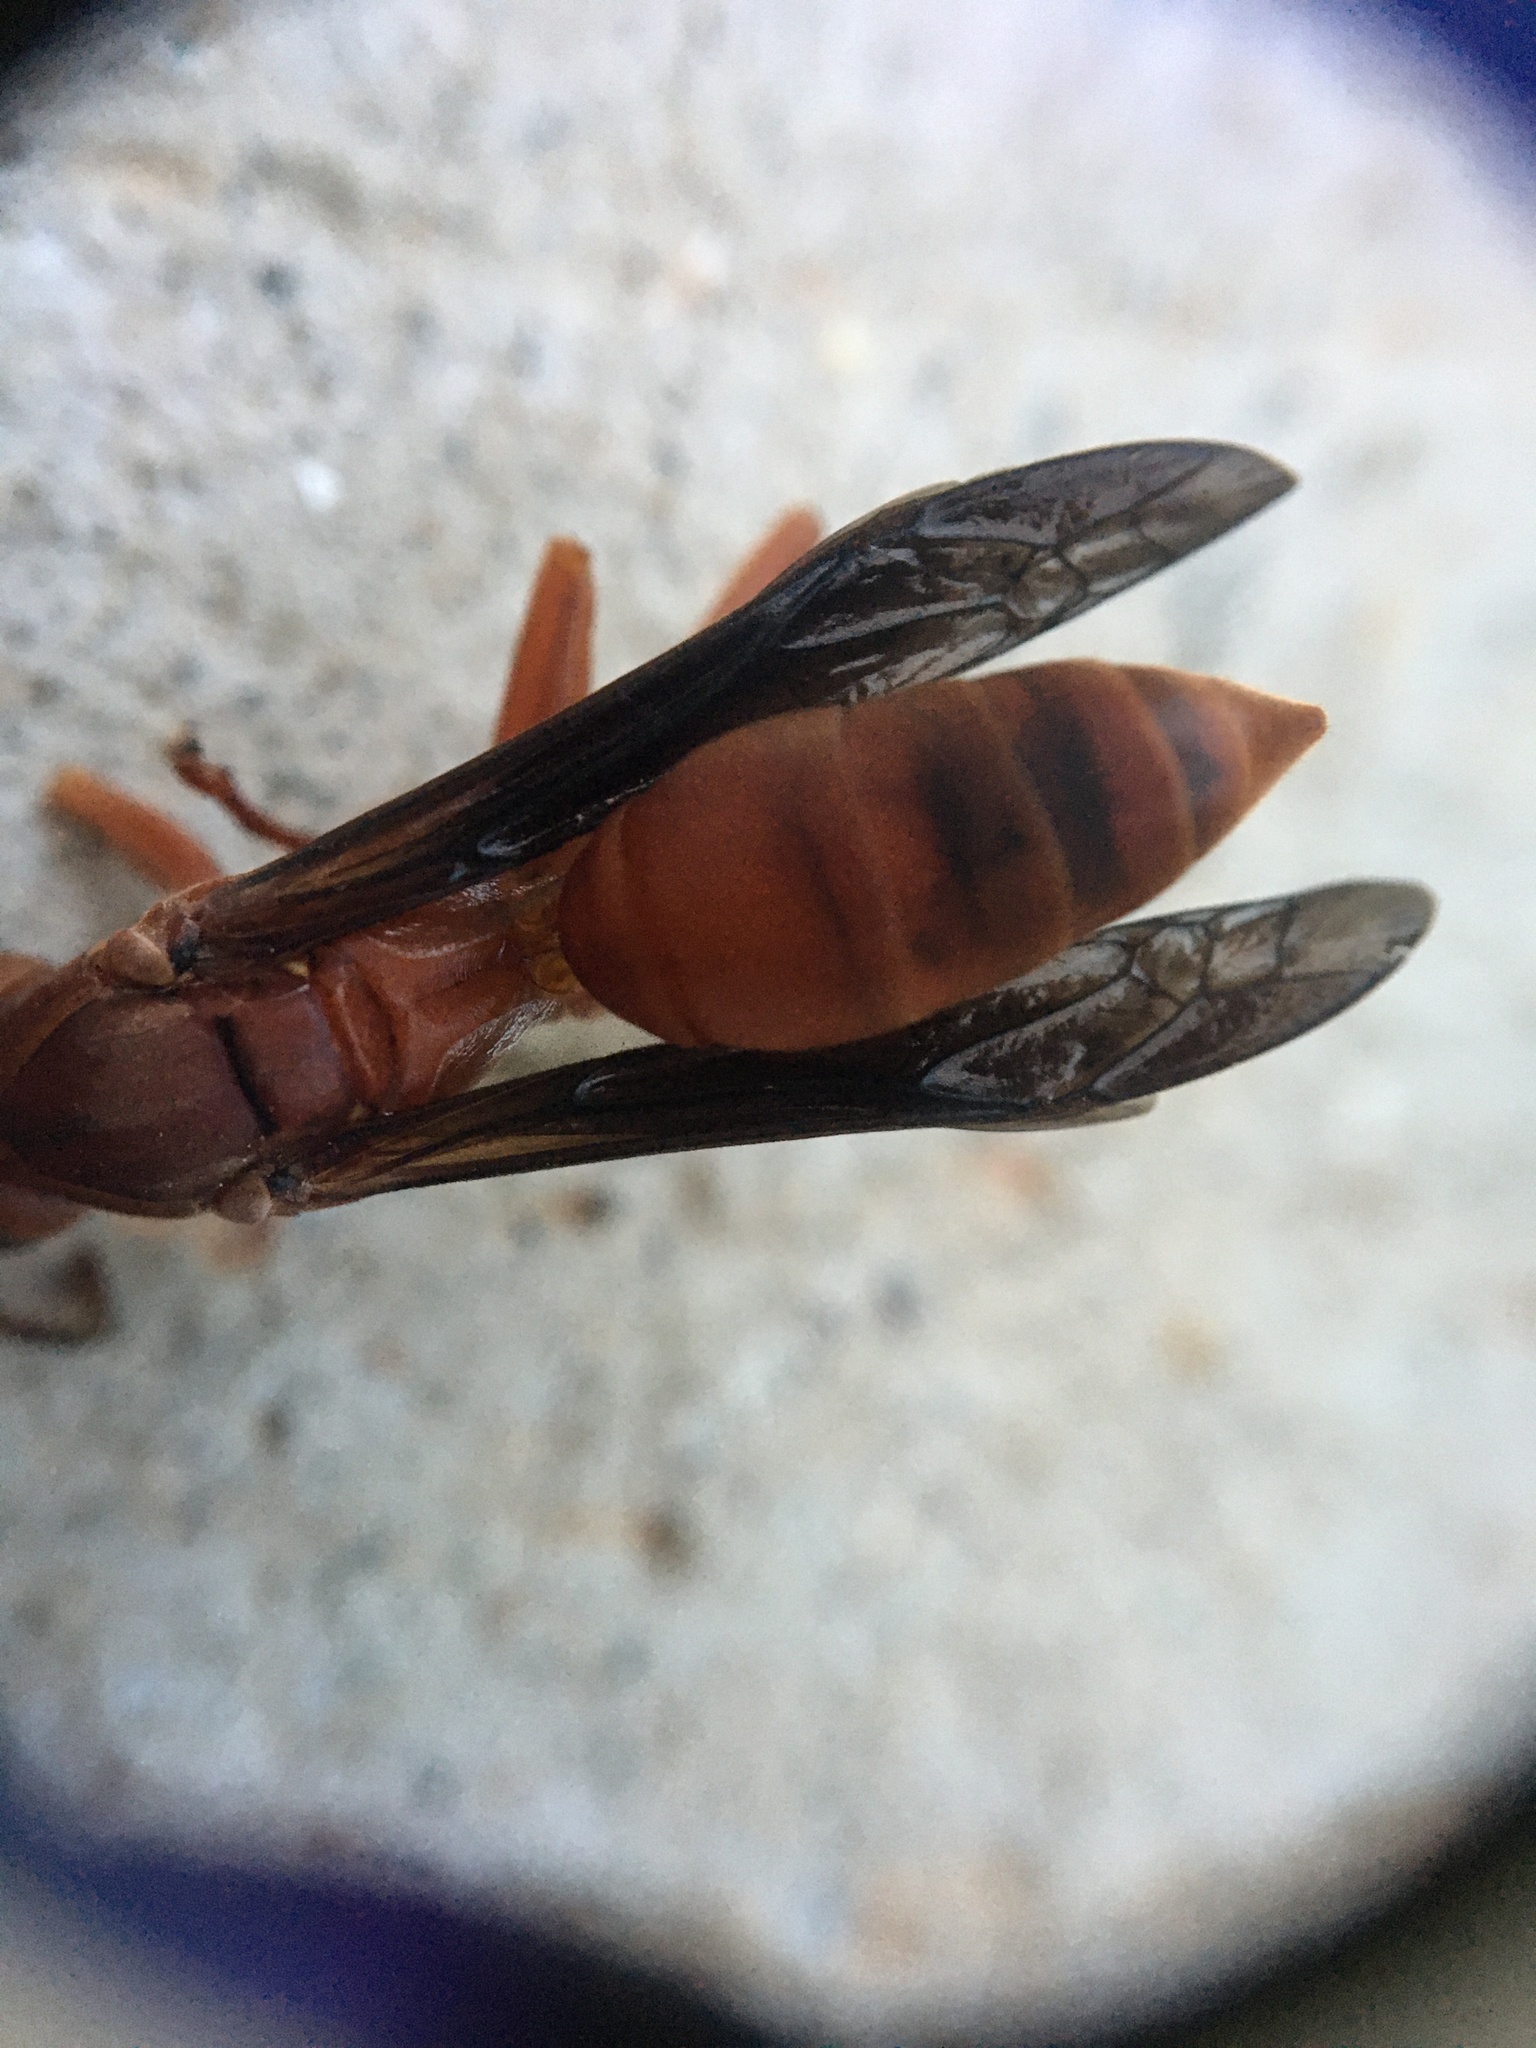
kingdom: Animalia
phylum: Arthropoda
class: Insecta
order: Hymenoptera
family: Vespidae
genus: Fuscopolistes
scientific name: Fuscopolistes
